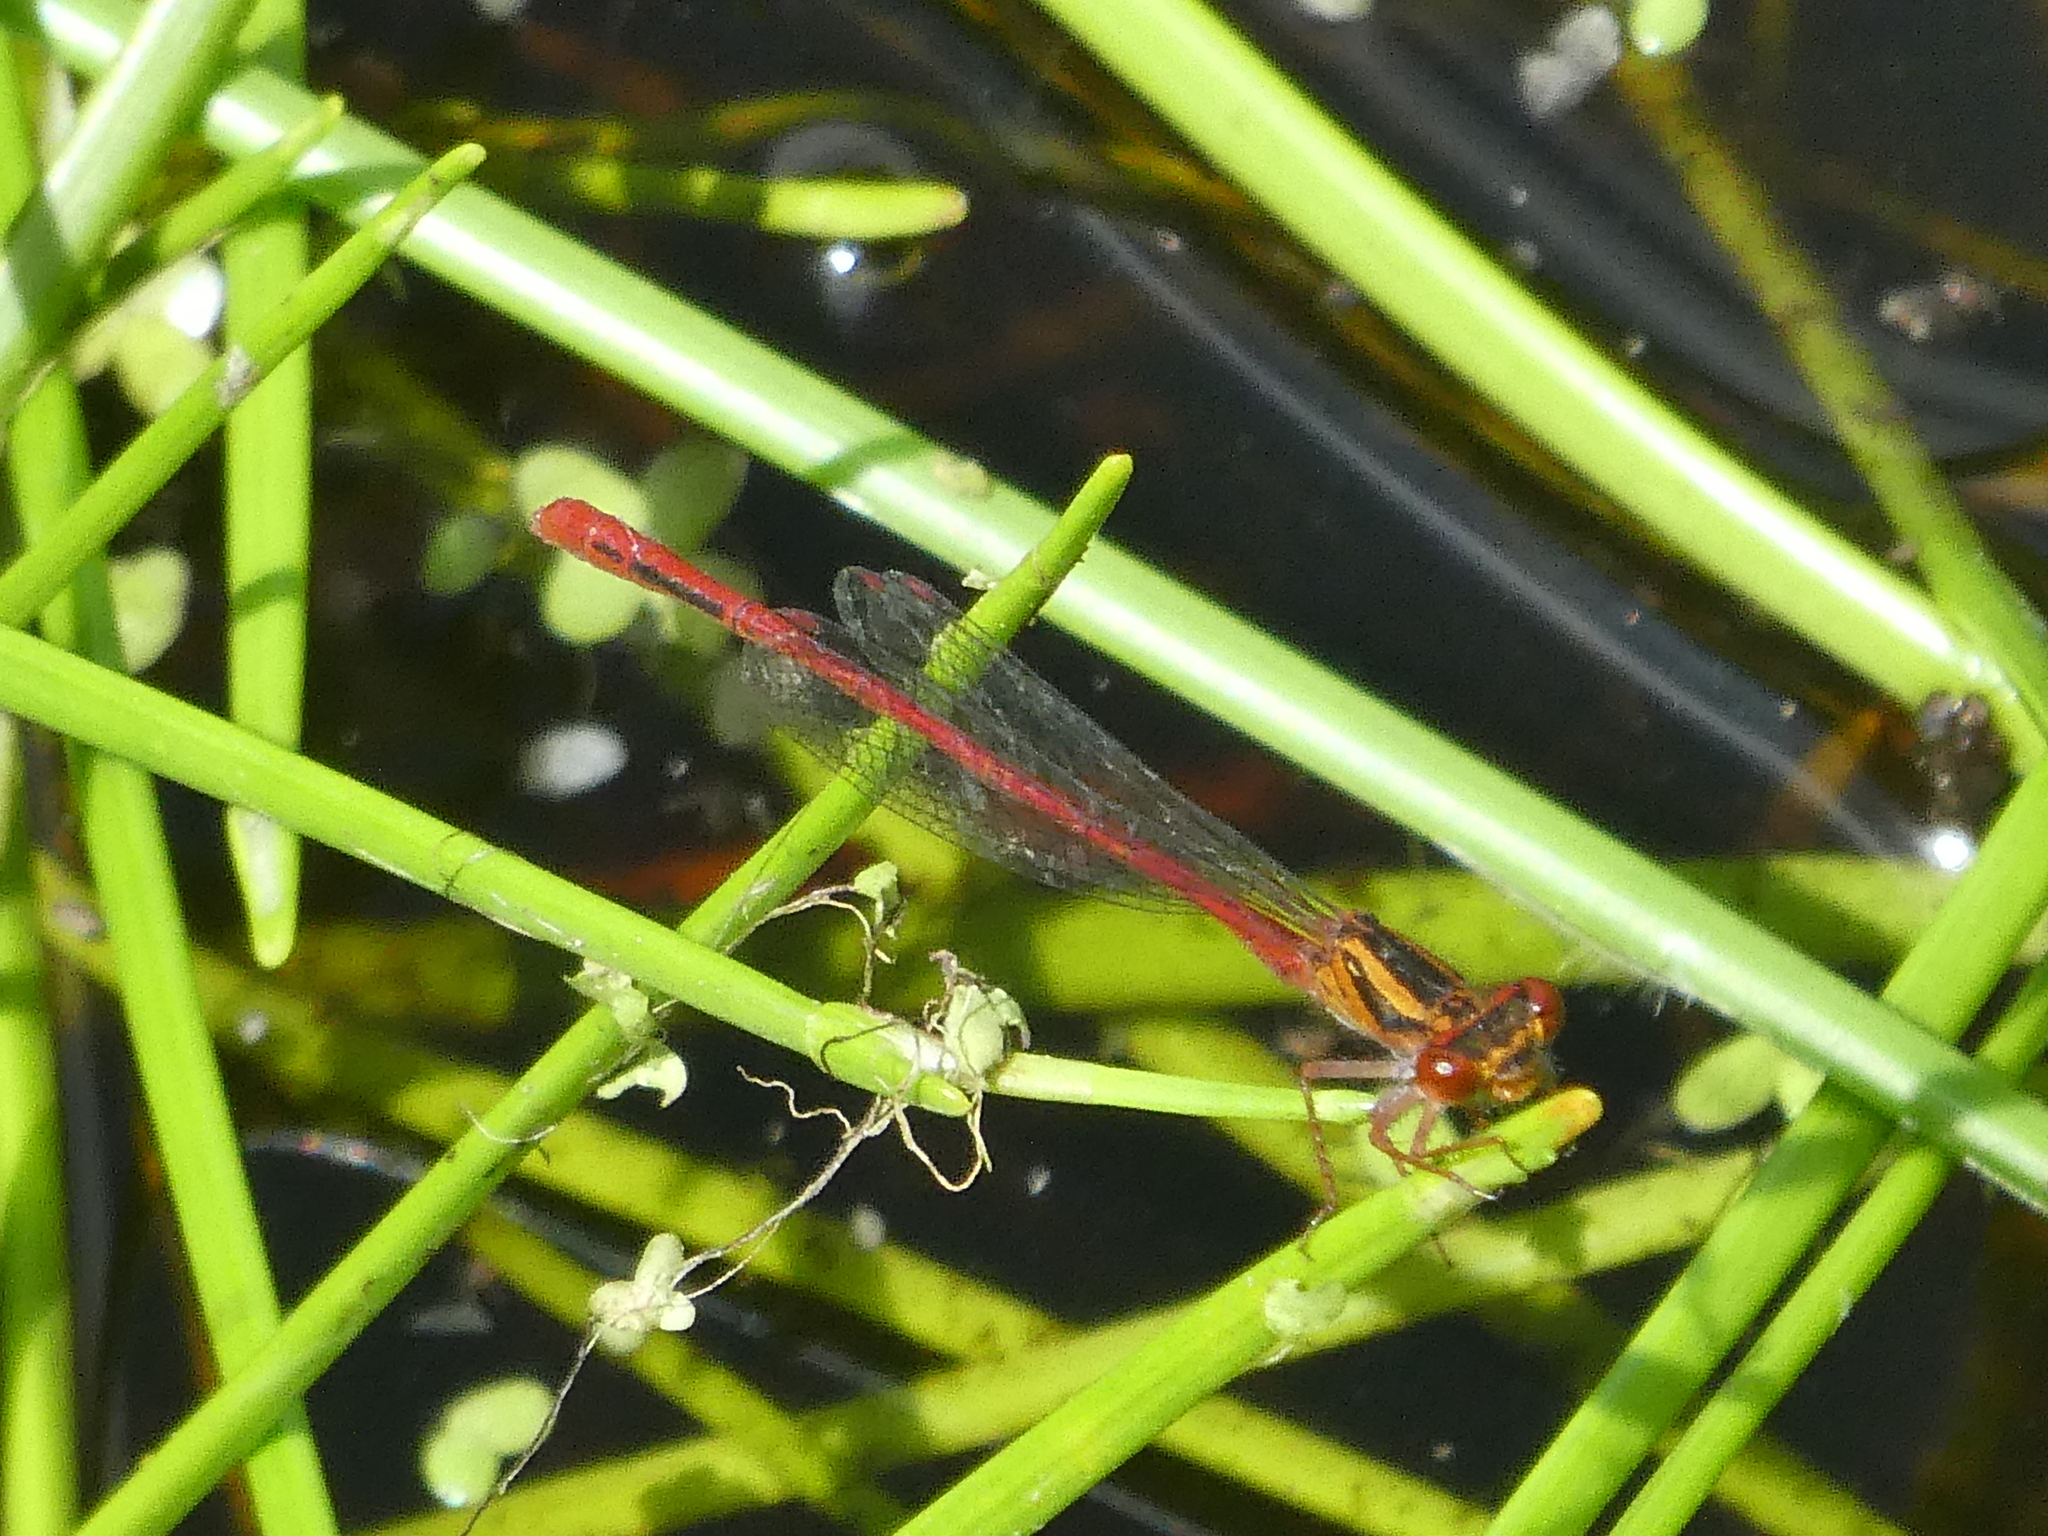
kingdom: Animalia
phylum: Arthropoda
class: Insecta
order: Odonata
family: Coenagrionidae
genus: Xanthocnemis
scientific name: Xanthocnemis zealandica
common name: Common redcoat damselfly
